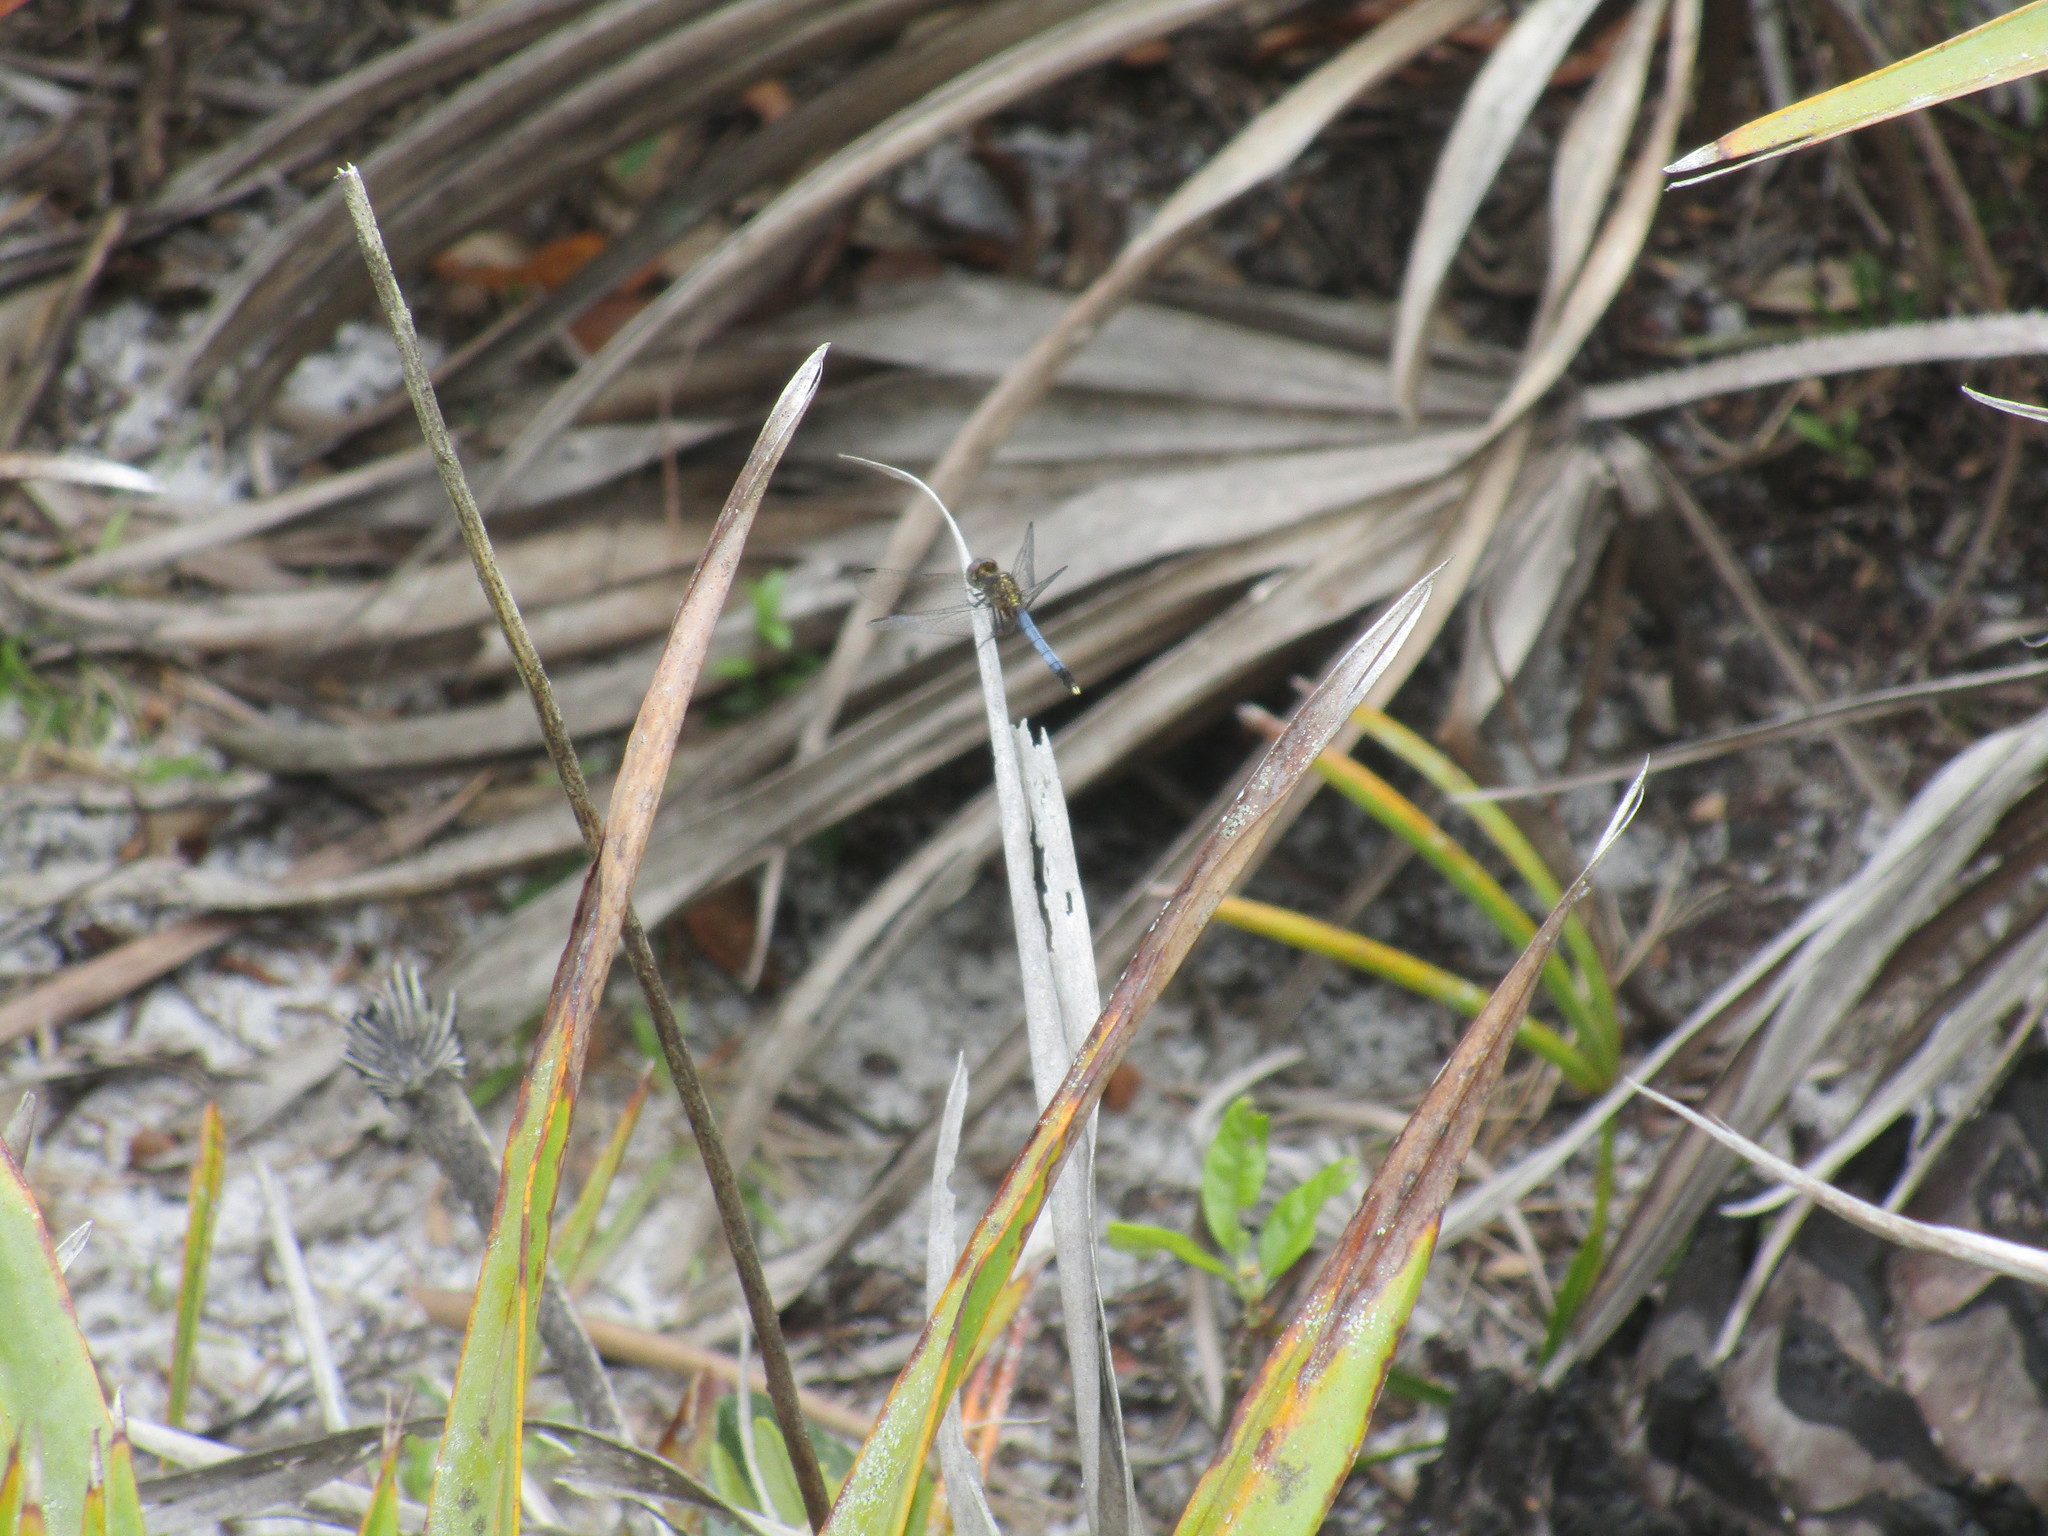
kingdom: Animalia
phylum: Arthropoda
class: Insecta
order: Odonata
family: Libellulidae
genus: Erythrodiplax
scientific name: Erythrodiplax minuscula
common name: Little blue dragonlet
